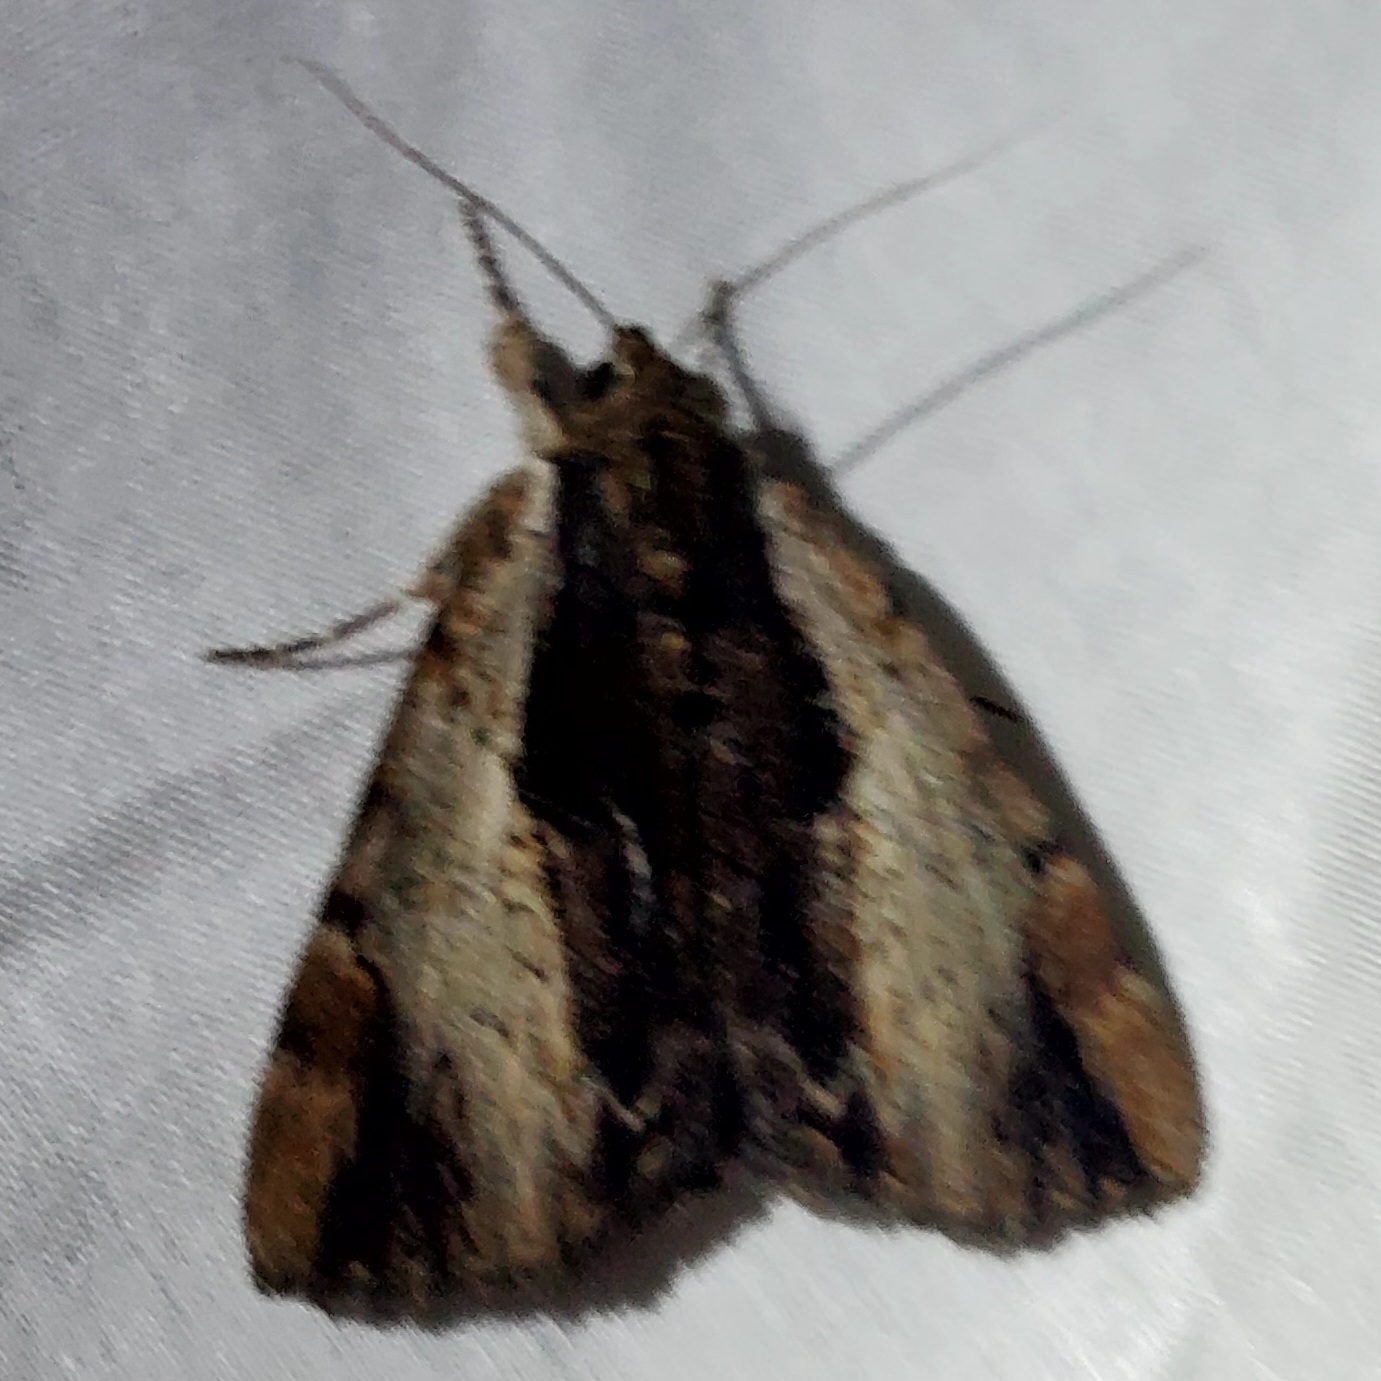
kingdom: Animalia
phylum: Arthropoda
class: Insecta
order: Lepidoptera
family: Erebidae
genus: Catocala
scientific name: Catocala ultronia
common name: Ultronia underwing
